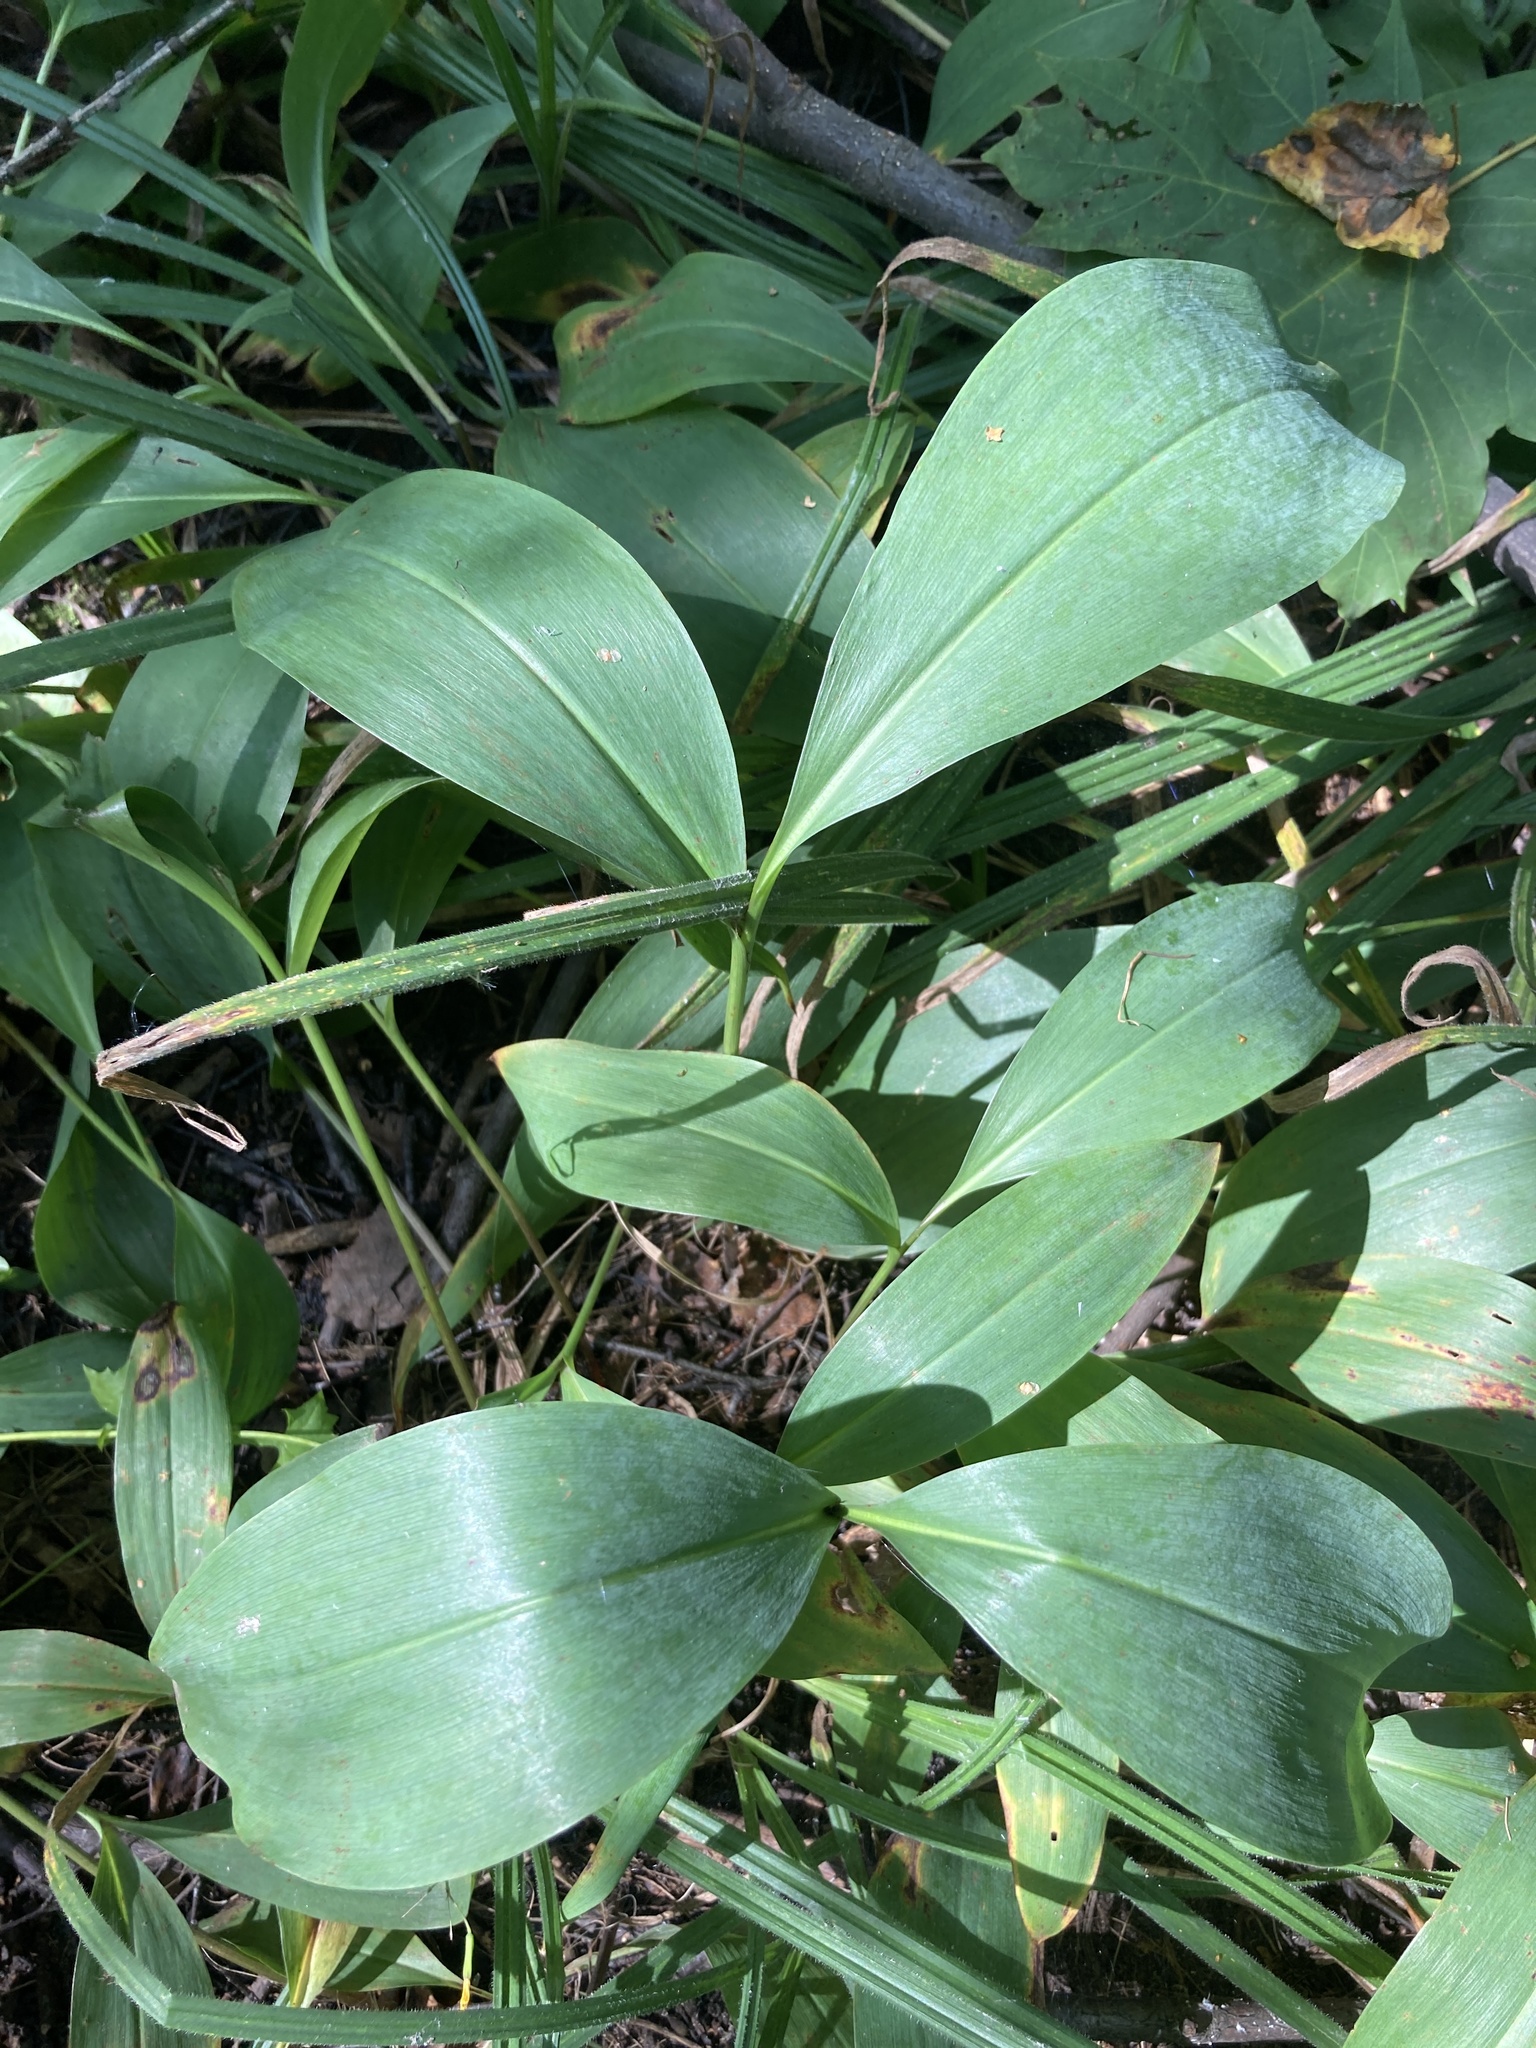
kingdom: Plantae
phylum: Tracheophyta
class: Liliopsida
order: Asparagales
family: Asparagaceae
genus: Convallaria
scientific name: Convallaria majalis
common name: Lily-of-the-valley
